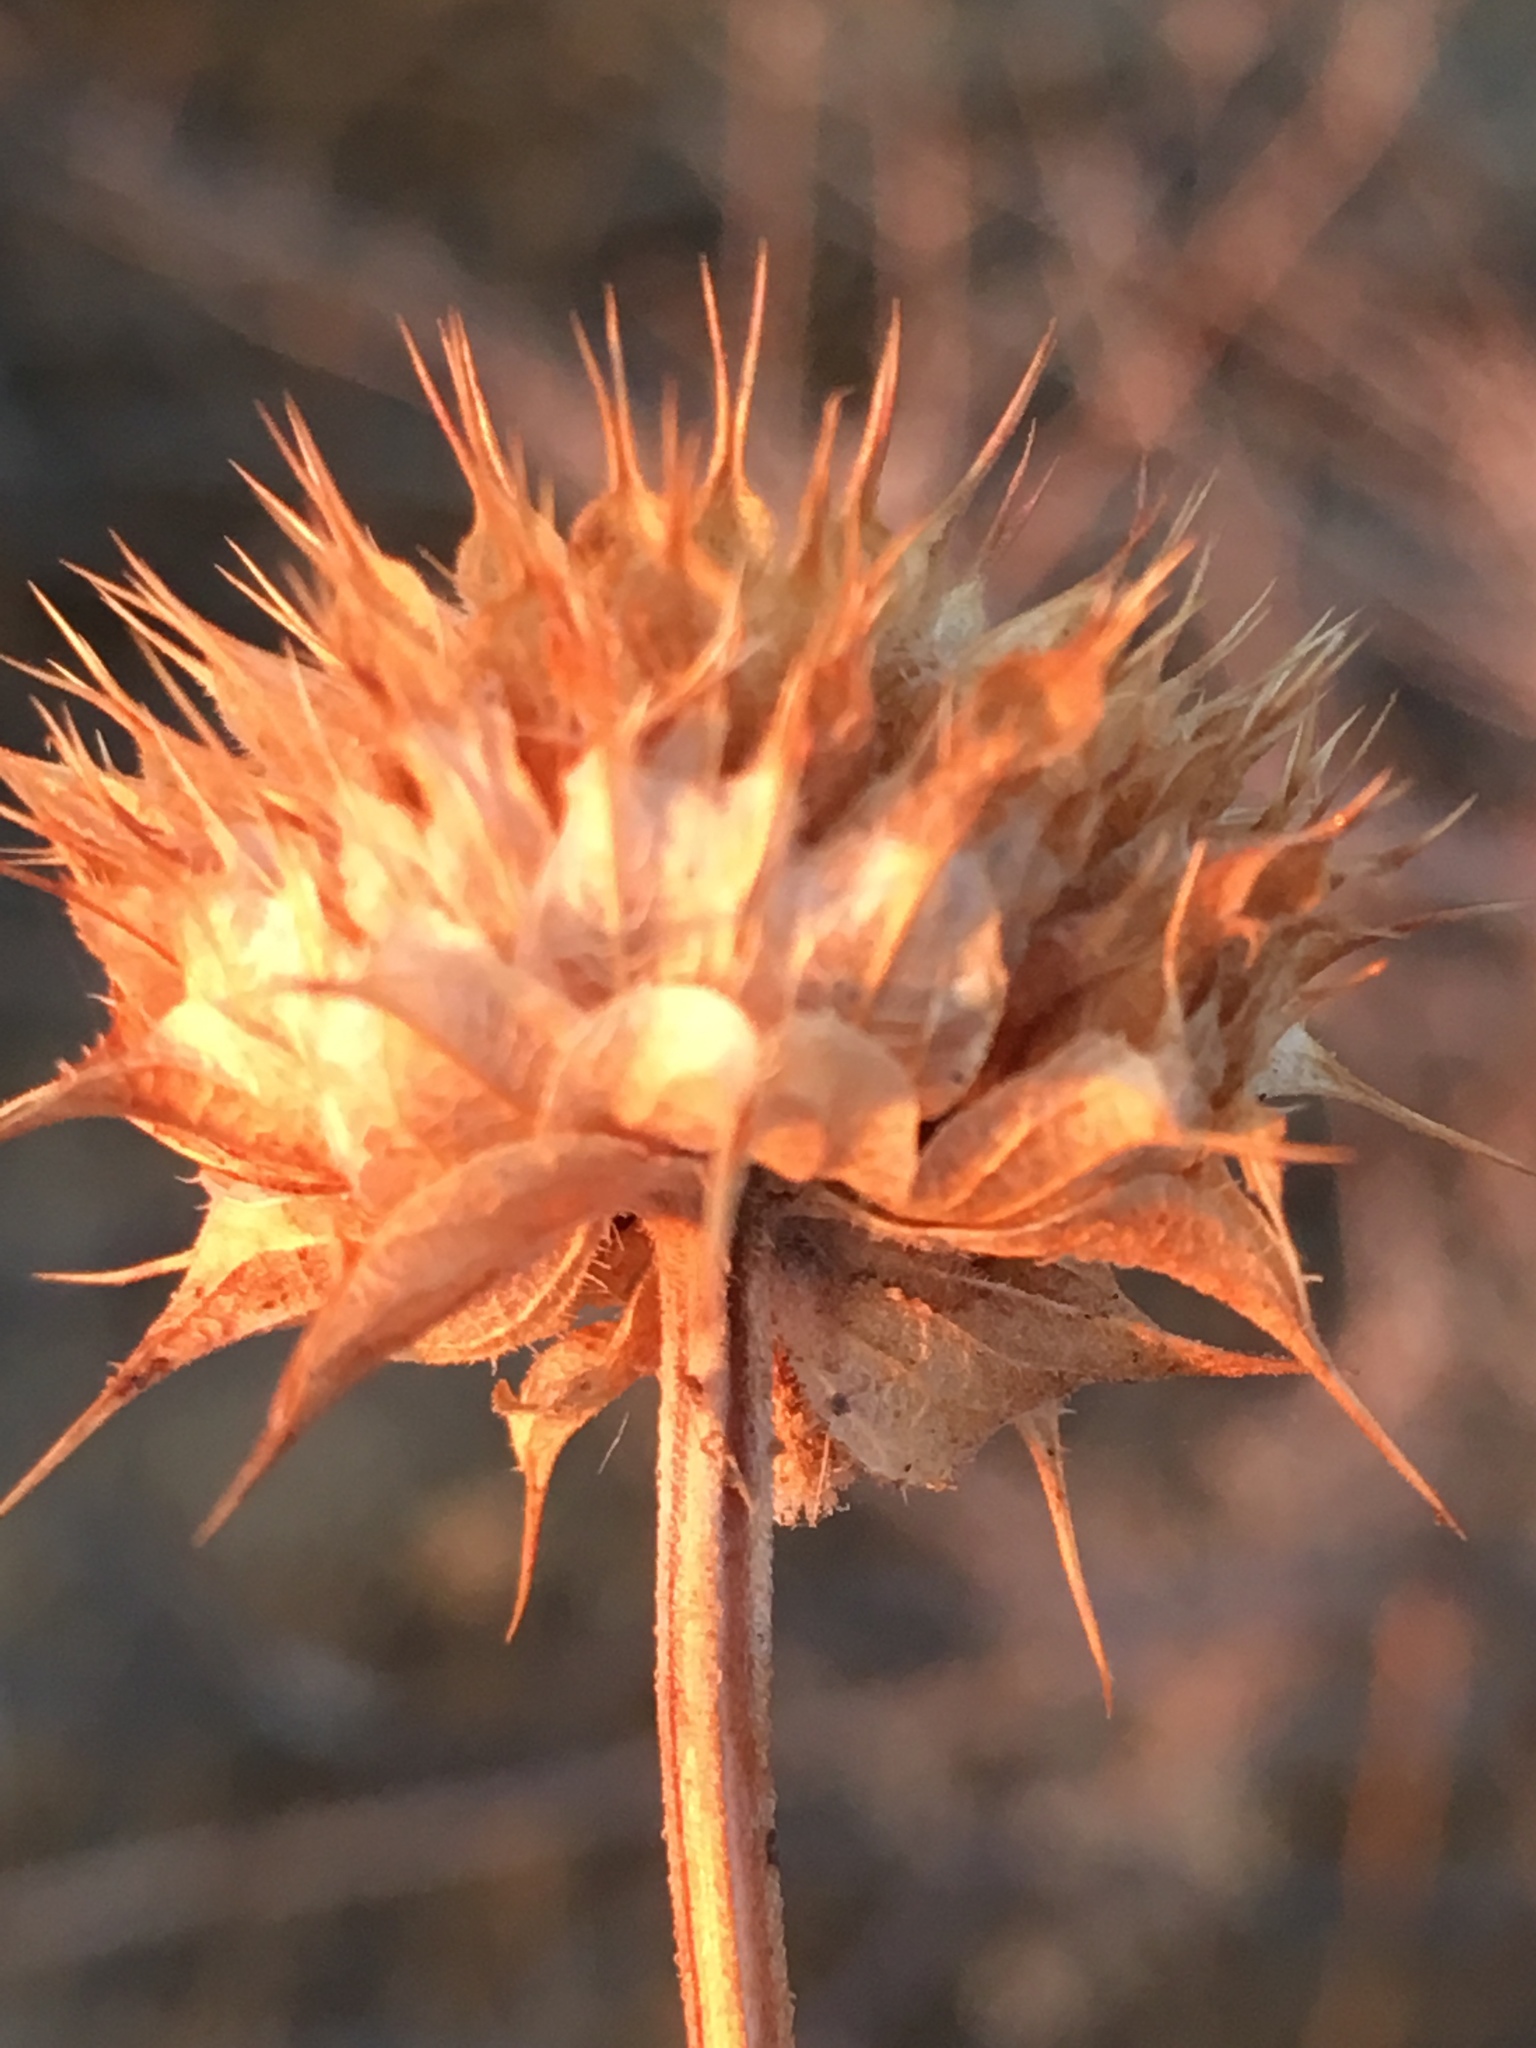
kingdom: Plantae
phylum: Tracheophyta
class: Magnoliopsida
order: Lamiales
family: Lamiaceae
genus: Salvia
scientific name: Salvia columbariae
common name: Chia
